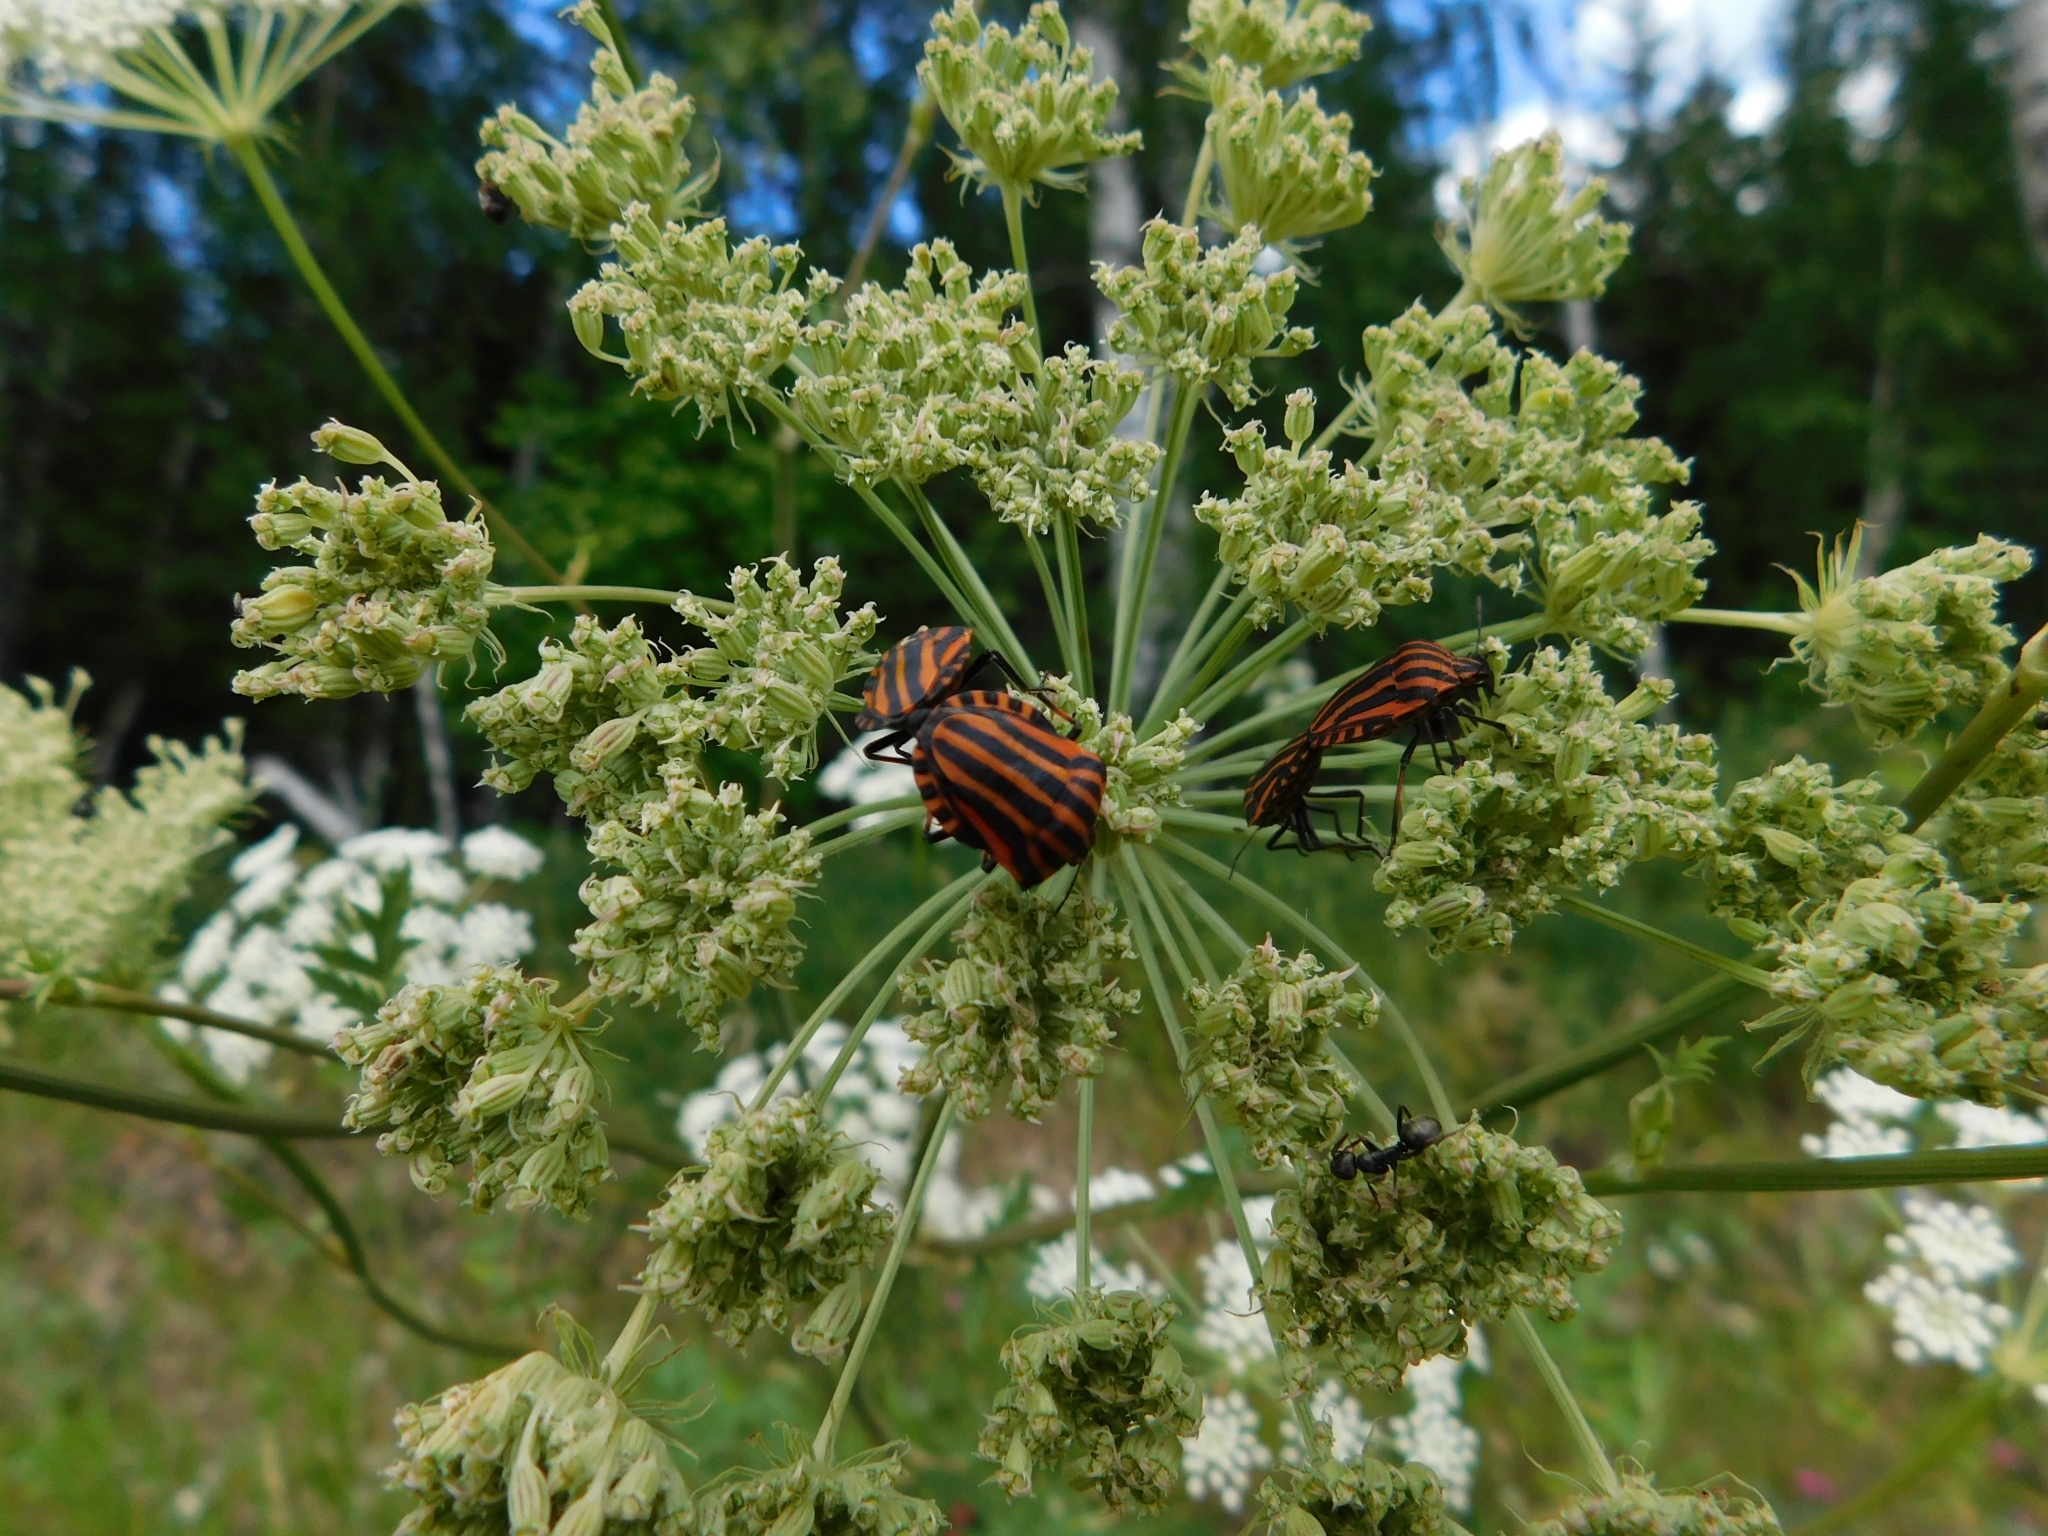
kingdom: Animalia
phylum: Arthropoda
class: Insecta
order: Hemiptera
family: Pentatomidae
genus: Graphosoma
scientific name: Graphosoma italicum
